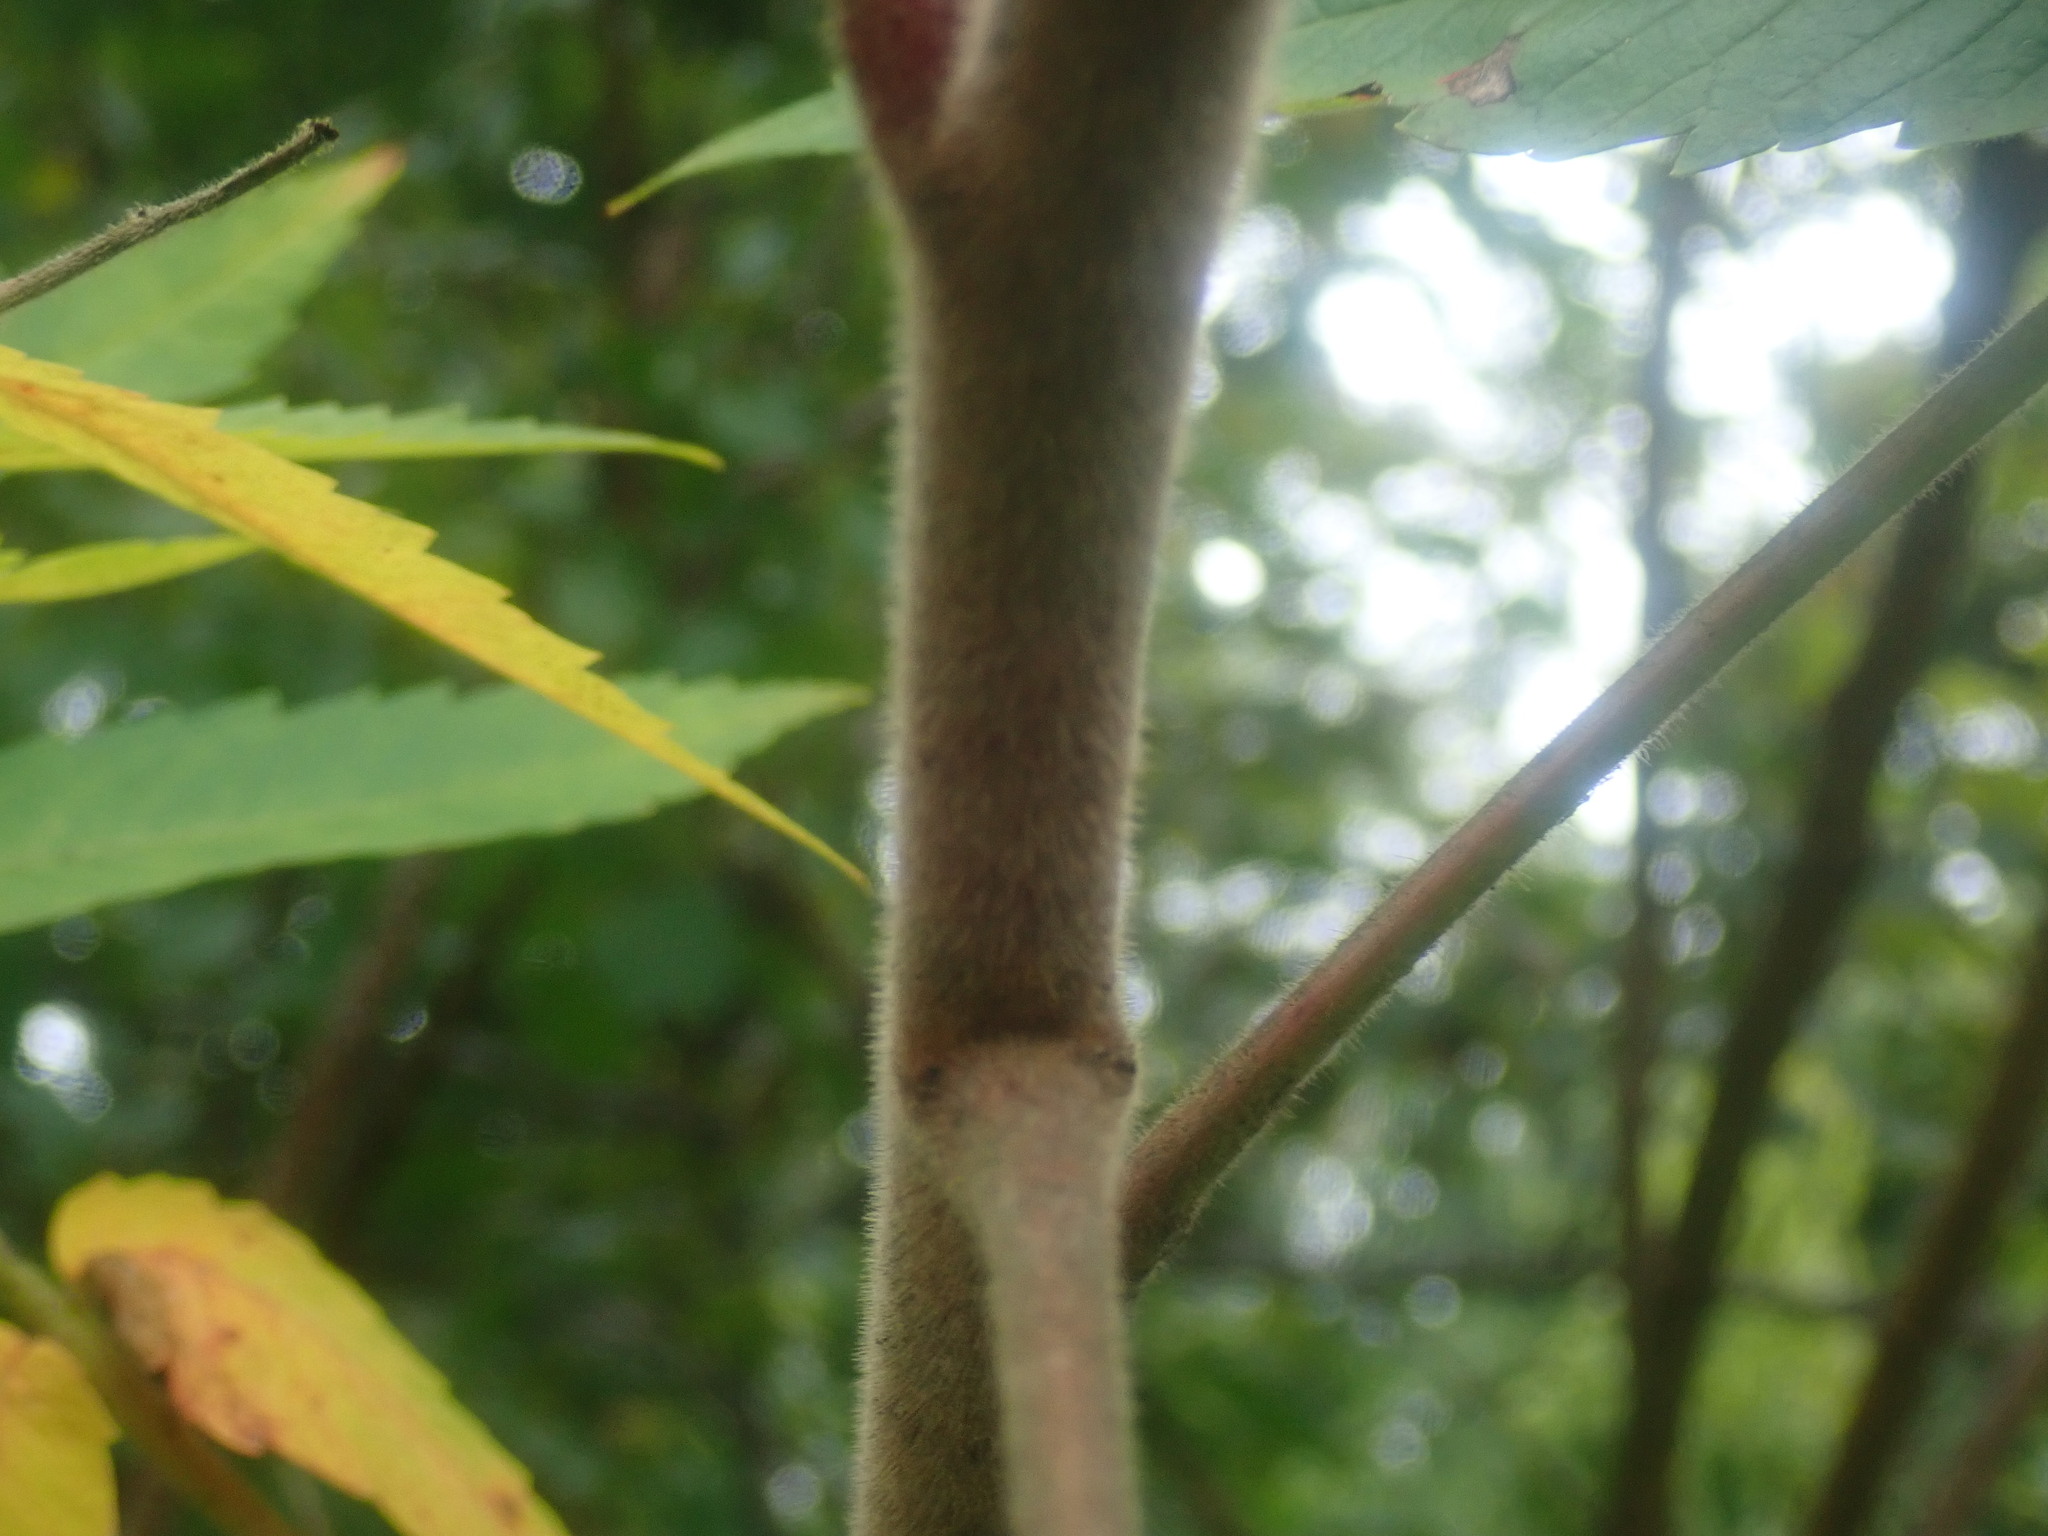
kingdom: Plantae
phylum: Tracheophyta
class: Magnoliopsida
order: Sapindales
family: Anacardiaceae
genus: Rhus
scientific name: Rhus typhina
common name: Staghorn sumac
